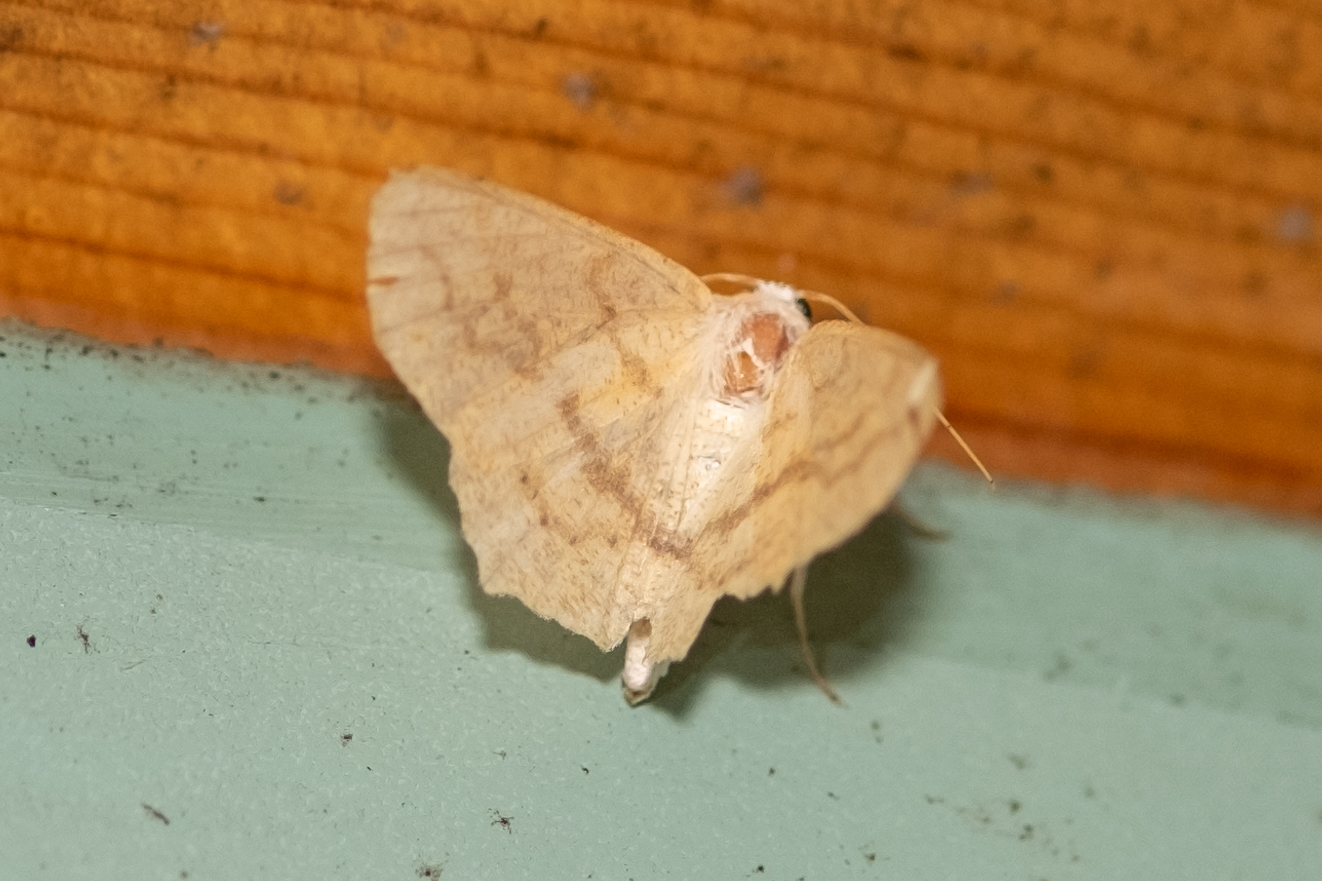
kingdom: Animalia
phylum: Arthropoda
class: Insecta
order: Lepidoptera
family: Geometridae
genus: Sabulodes
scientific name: Sabulodes aegrotata
